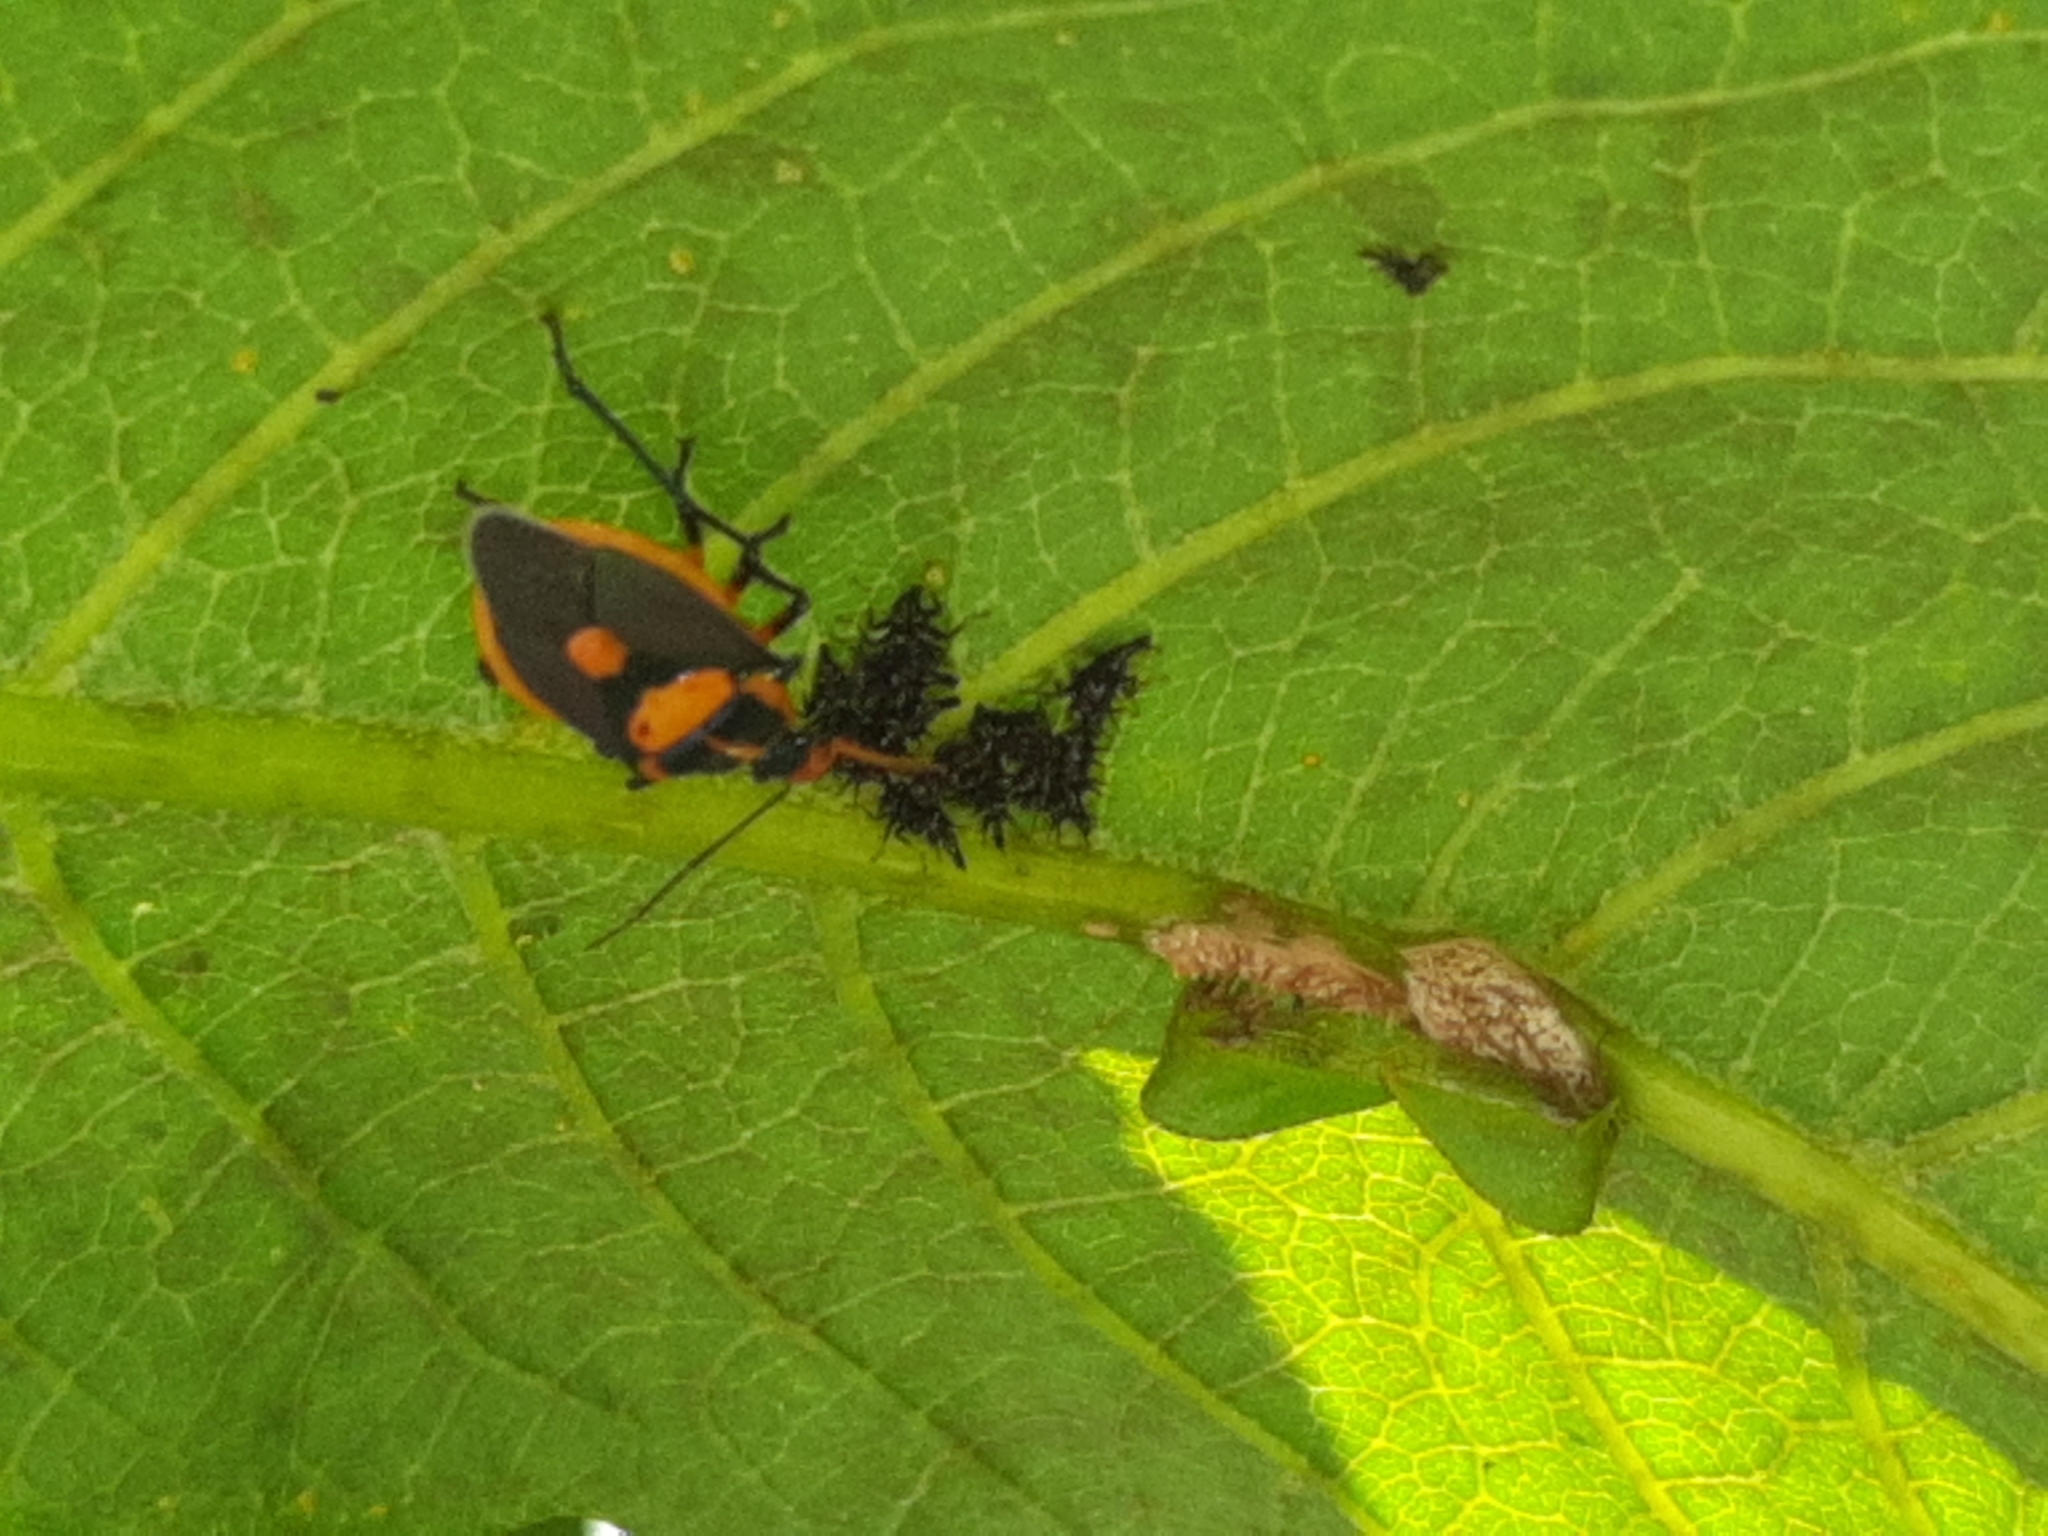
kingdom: Animalia
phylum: Arthropoda
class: Insecta
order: Hemiptera
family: Pentatomidae
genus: Euthyrhynchus
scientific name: Euthyrhynchus floridanus
